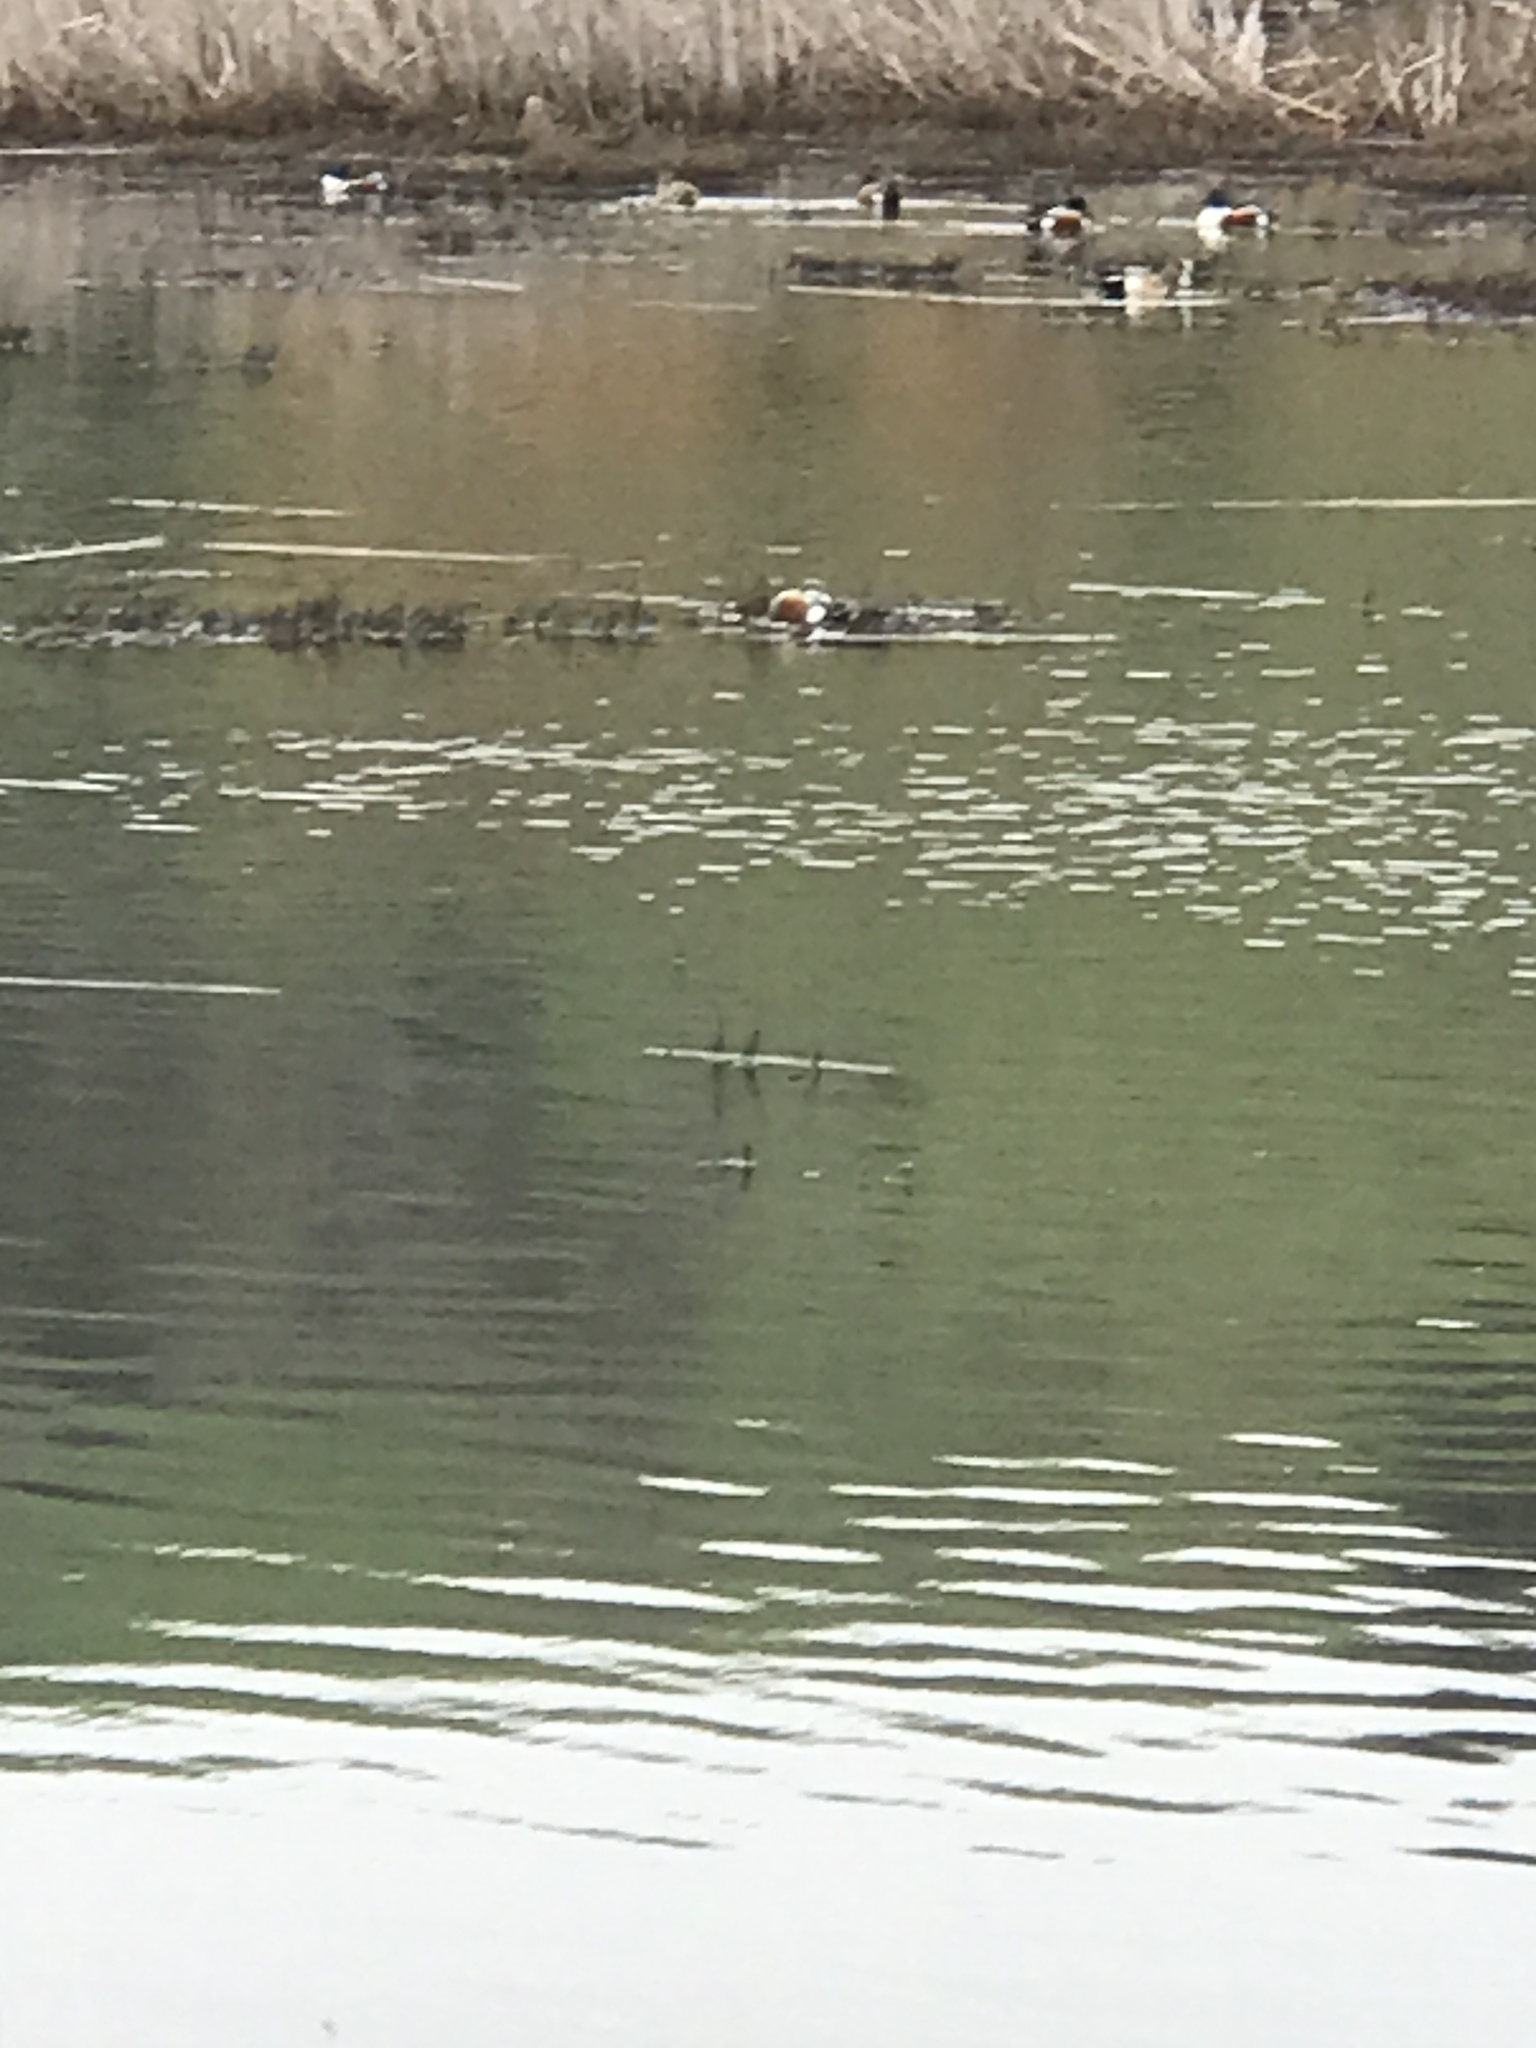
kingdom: Animalia
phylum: Chordata
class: Aves
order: Anseriformes
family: Anatidae
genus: Spatula
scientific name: Spatula clypeata
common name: Northern shoveler
